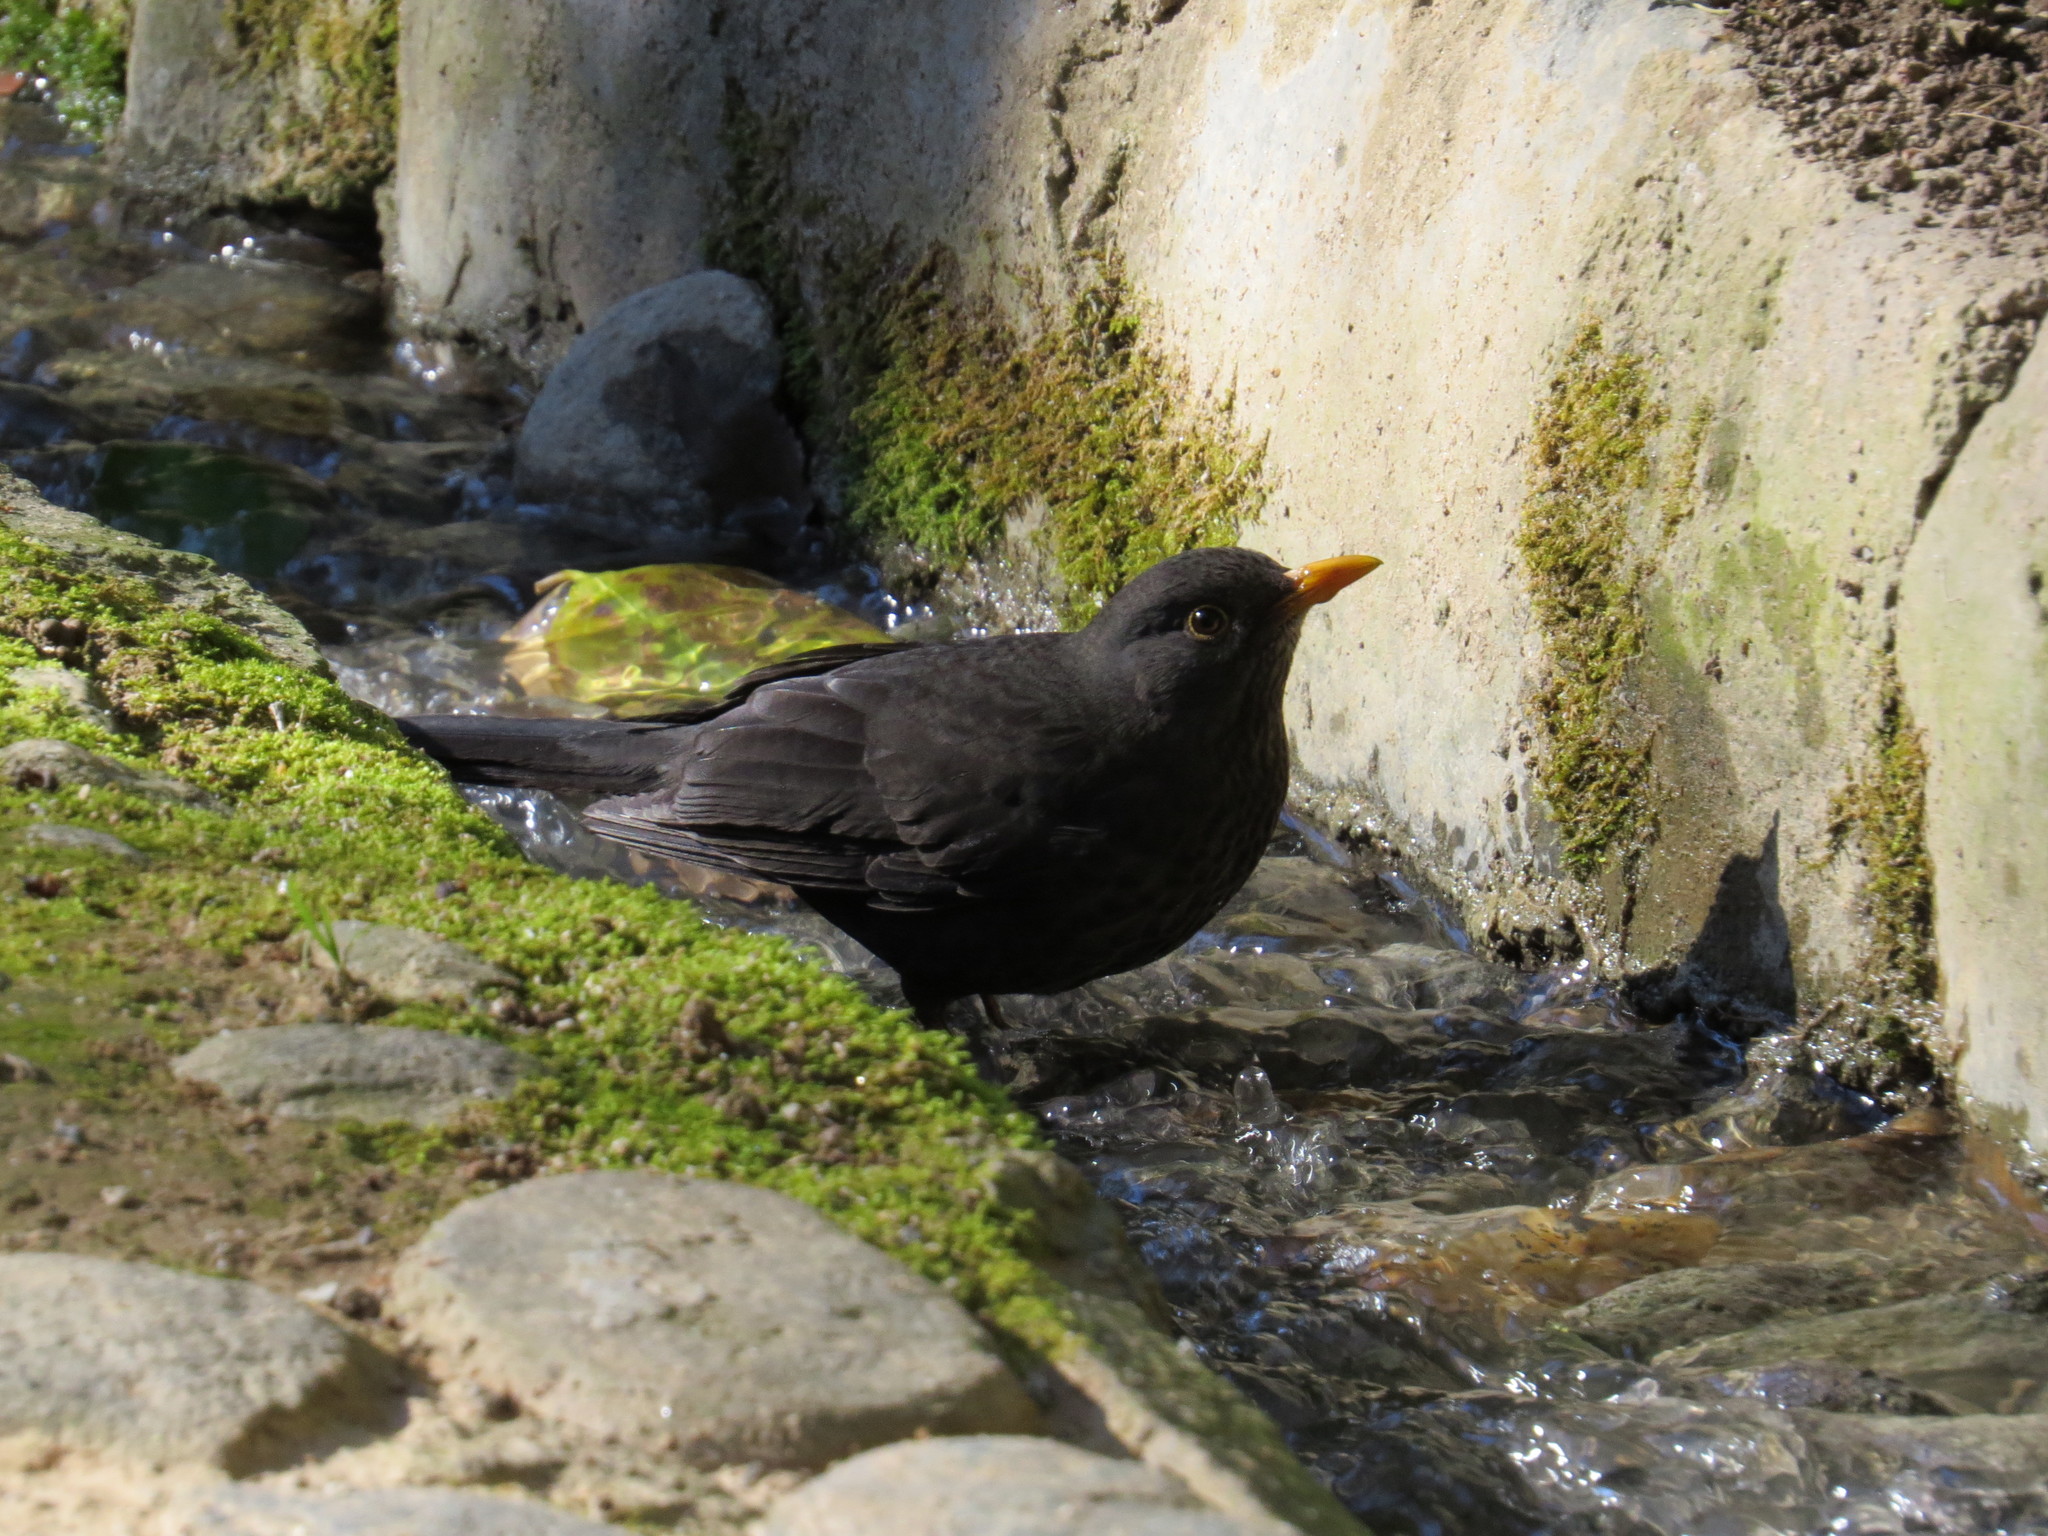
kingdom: Animalia
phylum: Chordata
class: Aves
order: Passeriformes
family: Turdidae
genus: Turdus
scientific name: Turdus merula
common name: Common blackbird
